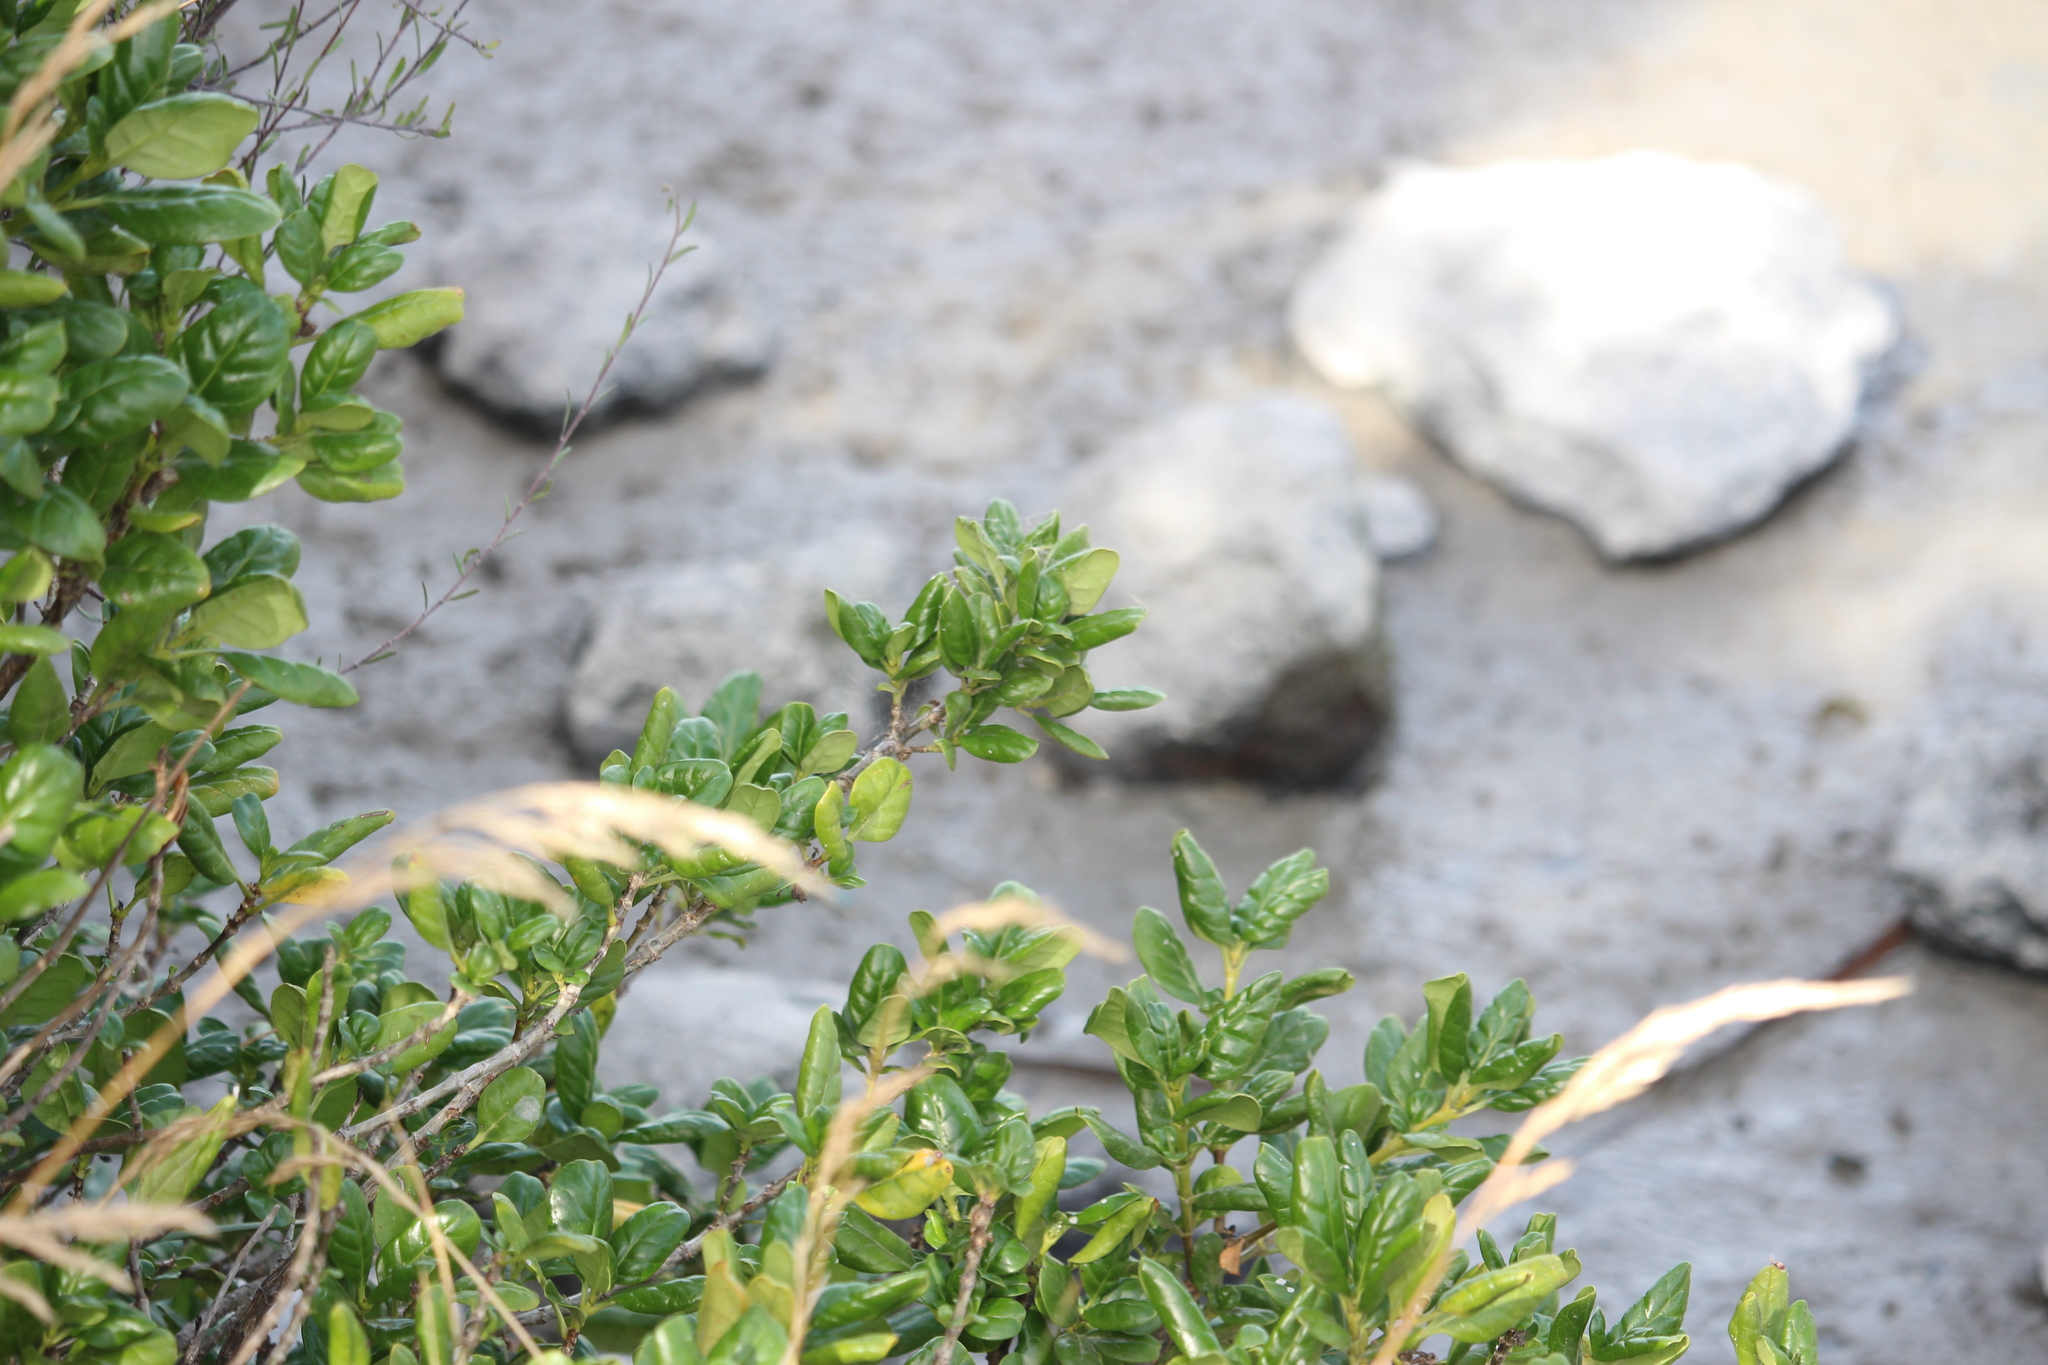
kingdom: Plantae
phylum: Tracheophyta
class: Magnoliopsida
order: Gentianales
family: Rubiaceae
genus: Coprosma
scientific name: Coprosma repens
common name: Tree bedstraw
